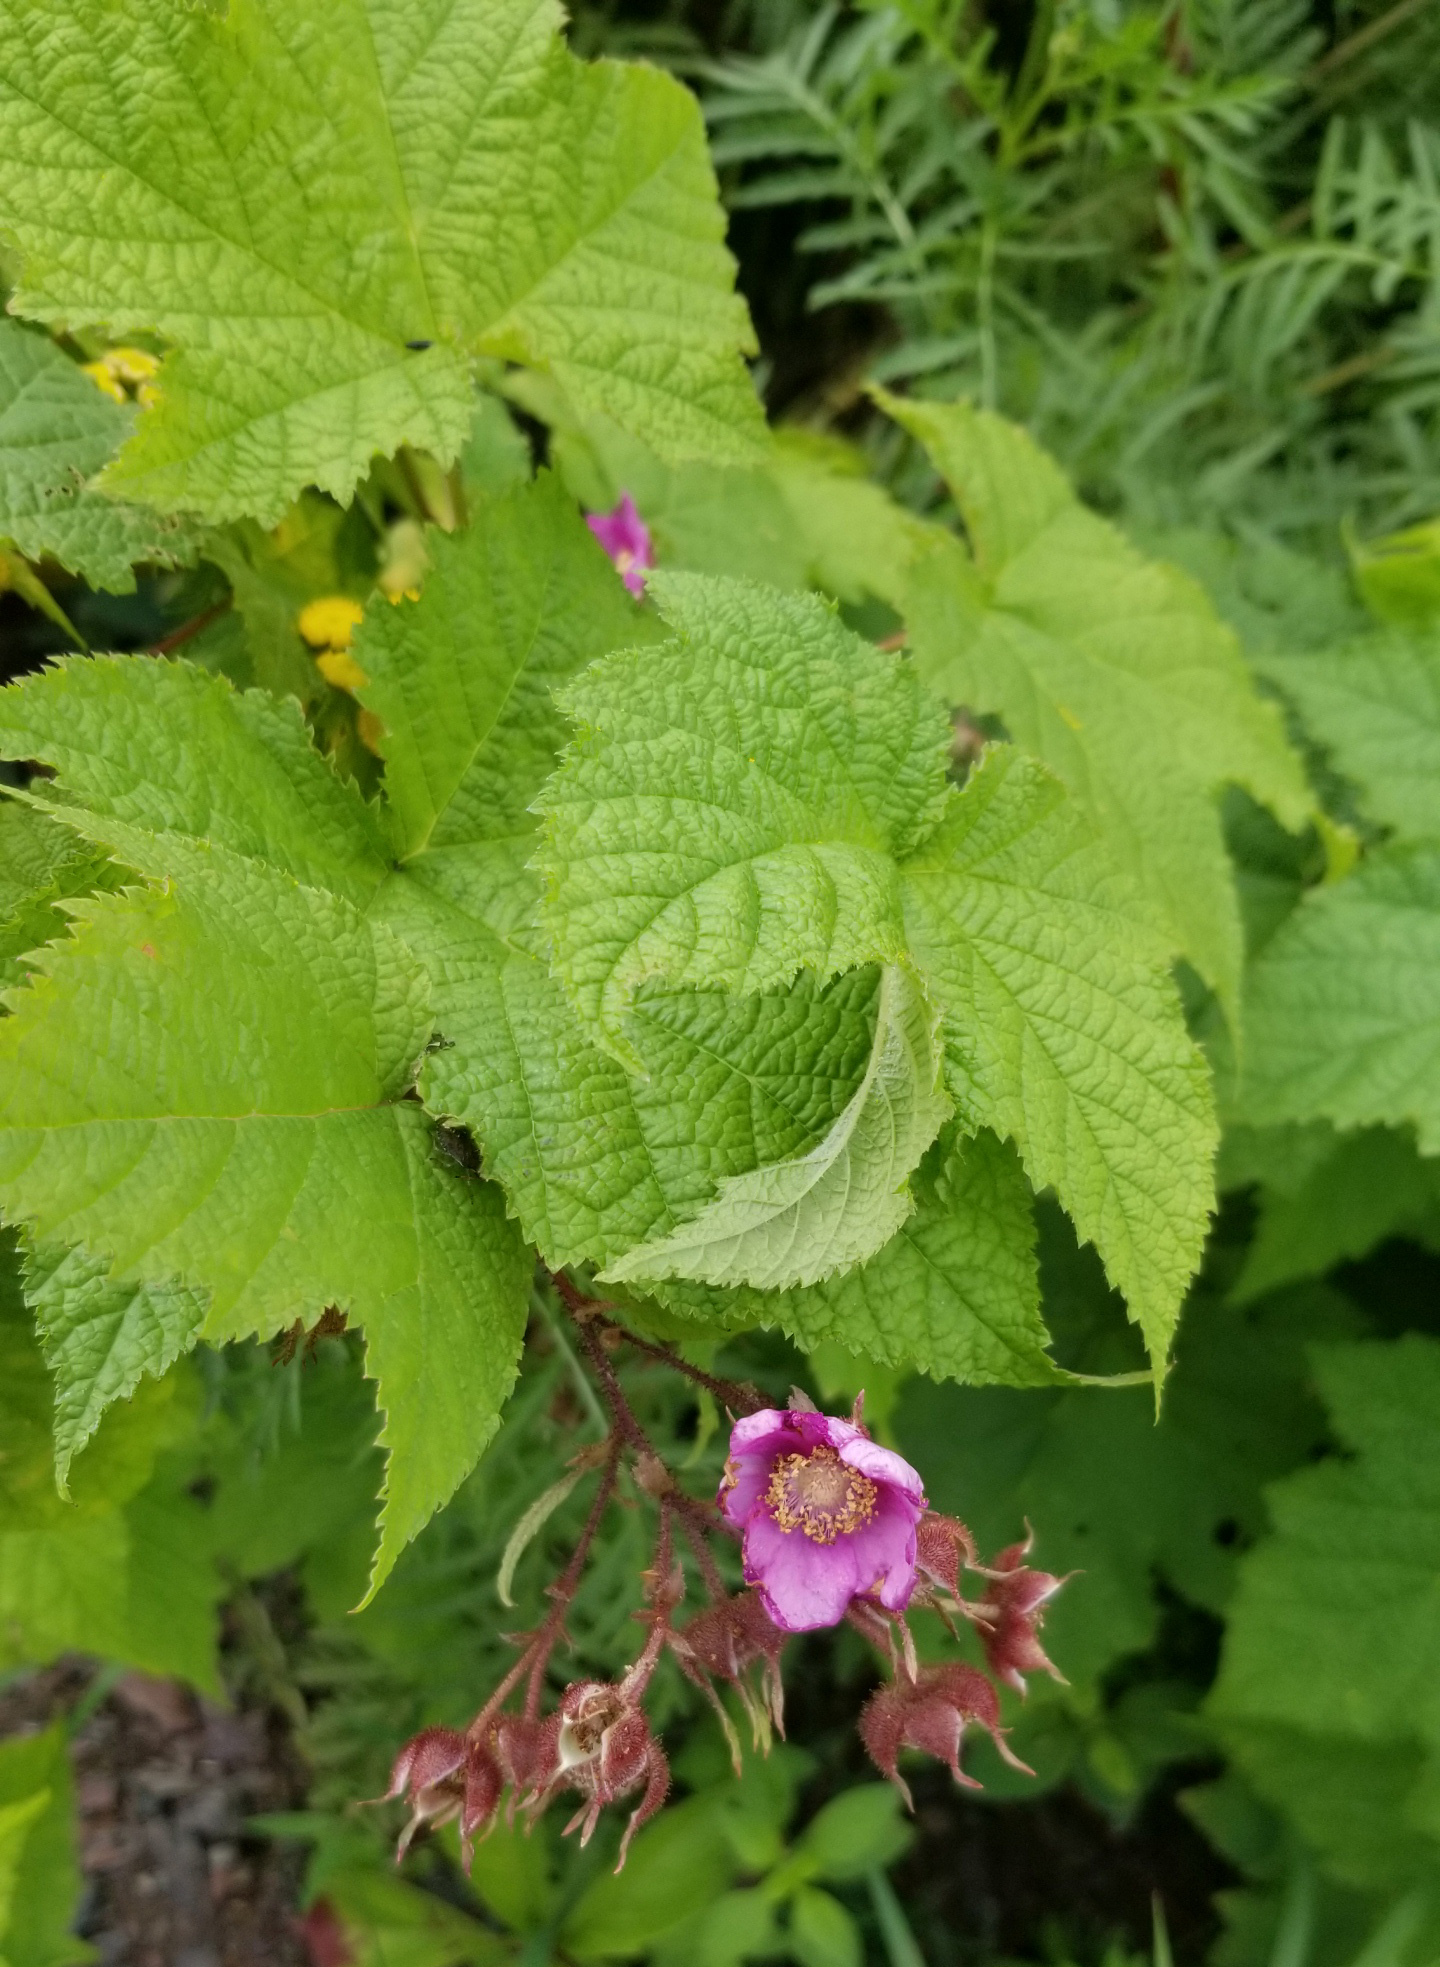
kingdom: Plantae
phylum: Tracheophyta
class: Magnoliopsida
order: Rosales
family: Rosaceae
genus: Rubus
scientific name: Rubus odoratus
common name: Purple-flowered raspberry
